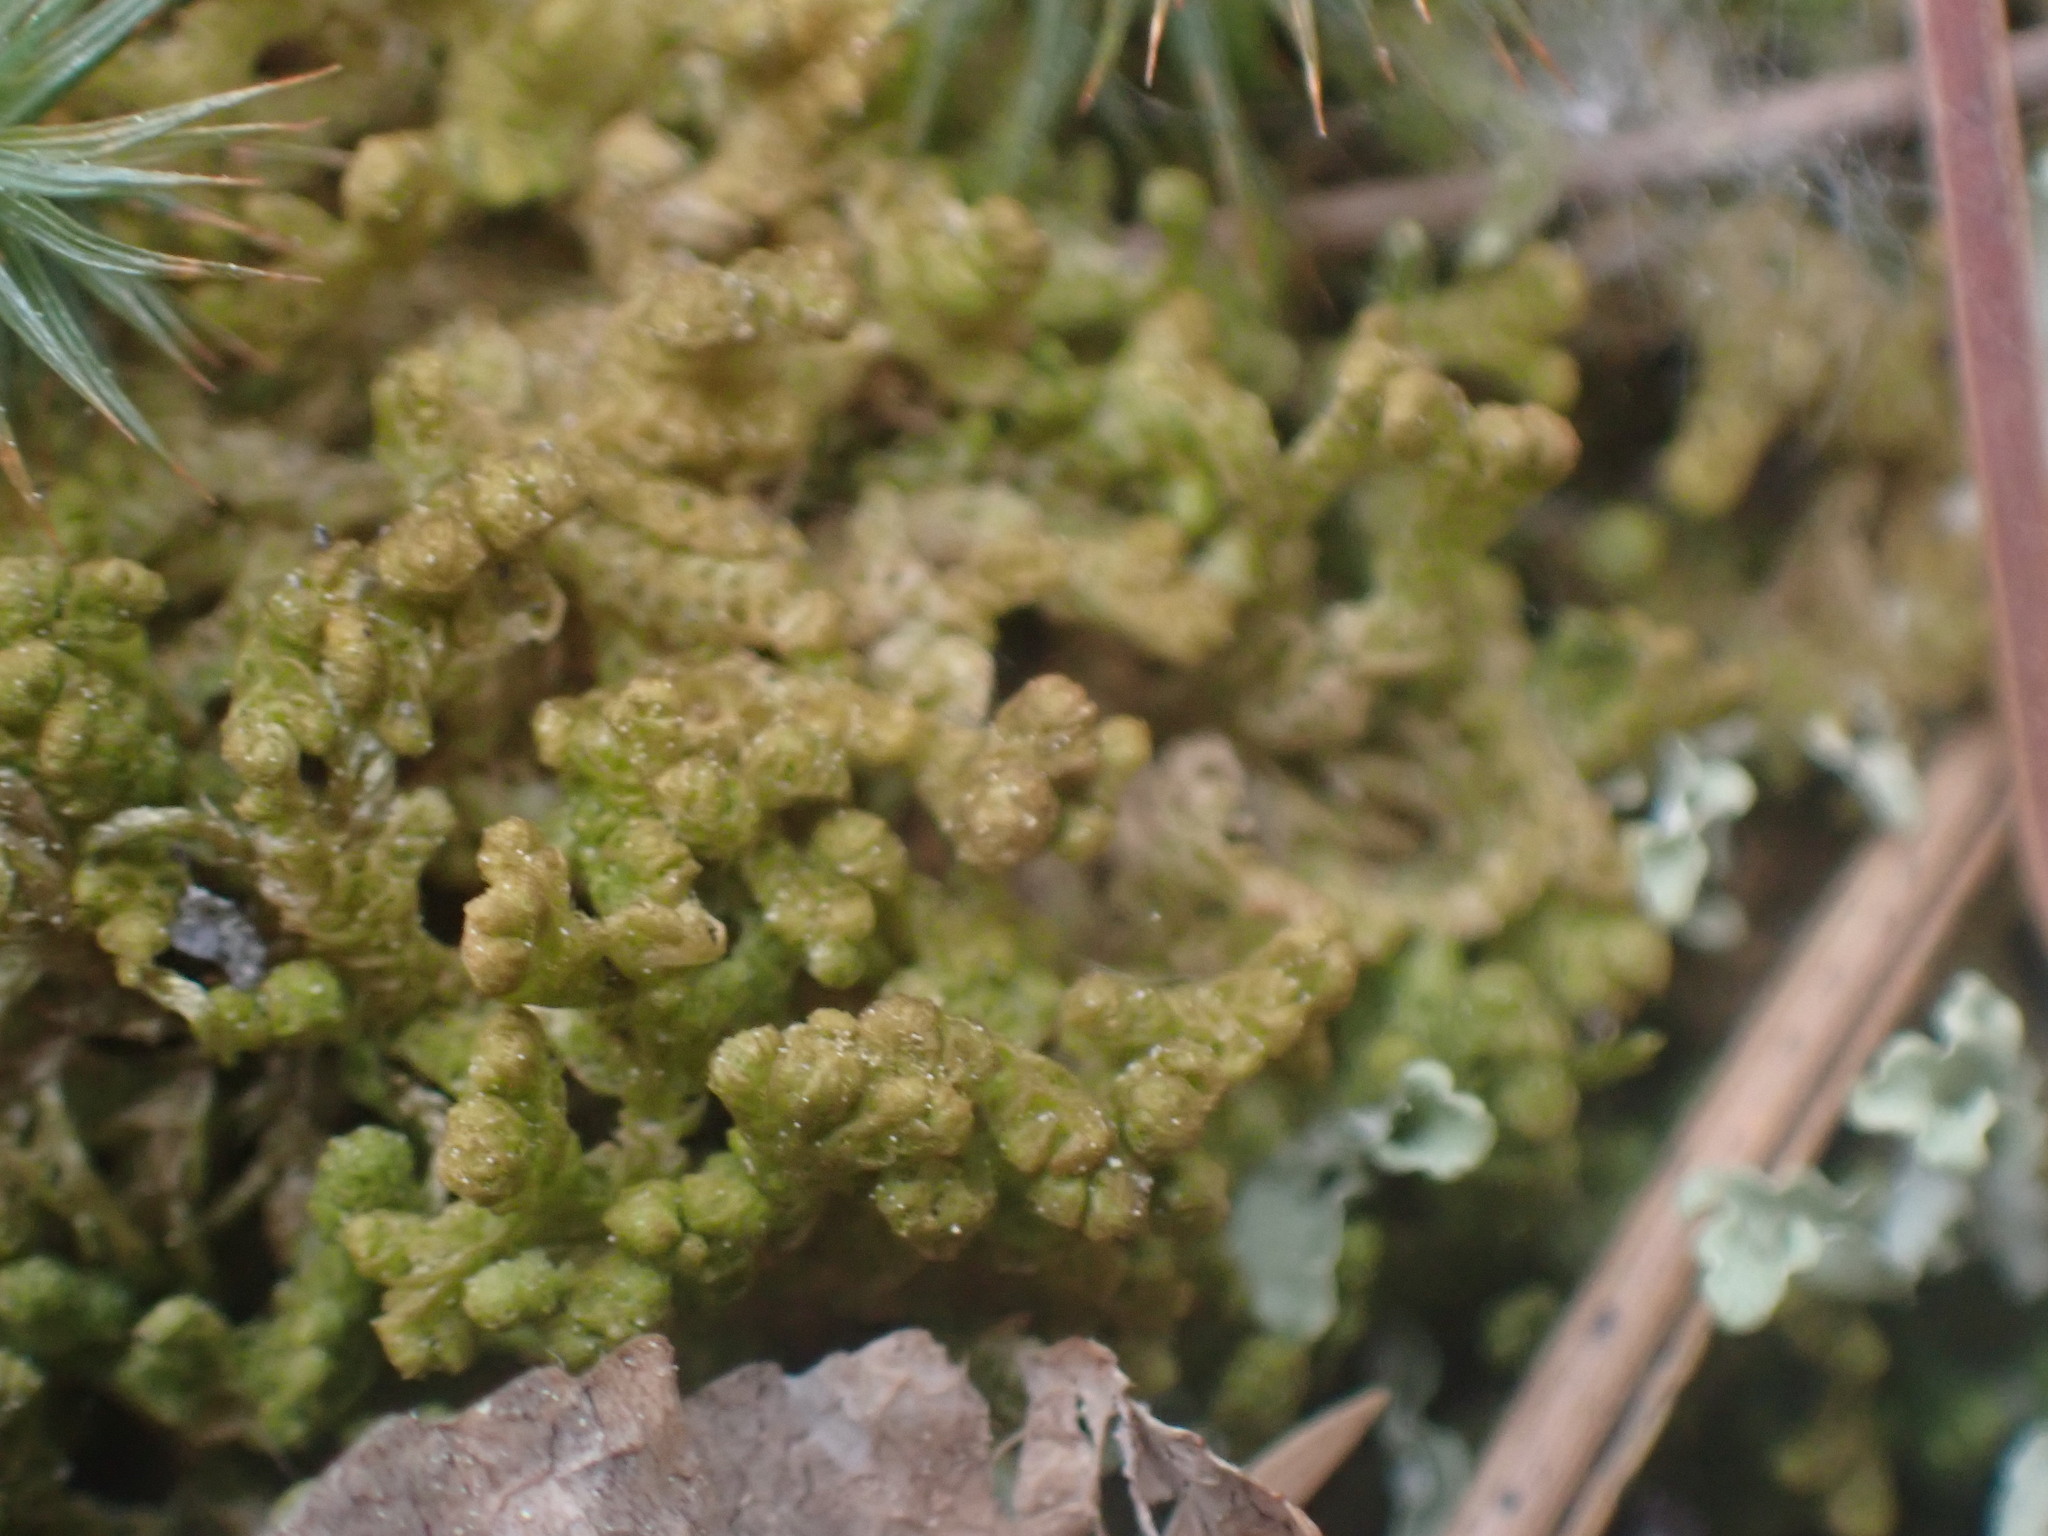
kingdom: Plantae
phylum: Marchantiophyta
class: Jungermanniopsida
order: Ptilidiales
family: Ptilidiaceae
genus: Ptilidium
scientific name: Ptilidium ciliare
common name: Ciliate fringewort
